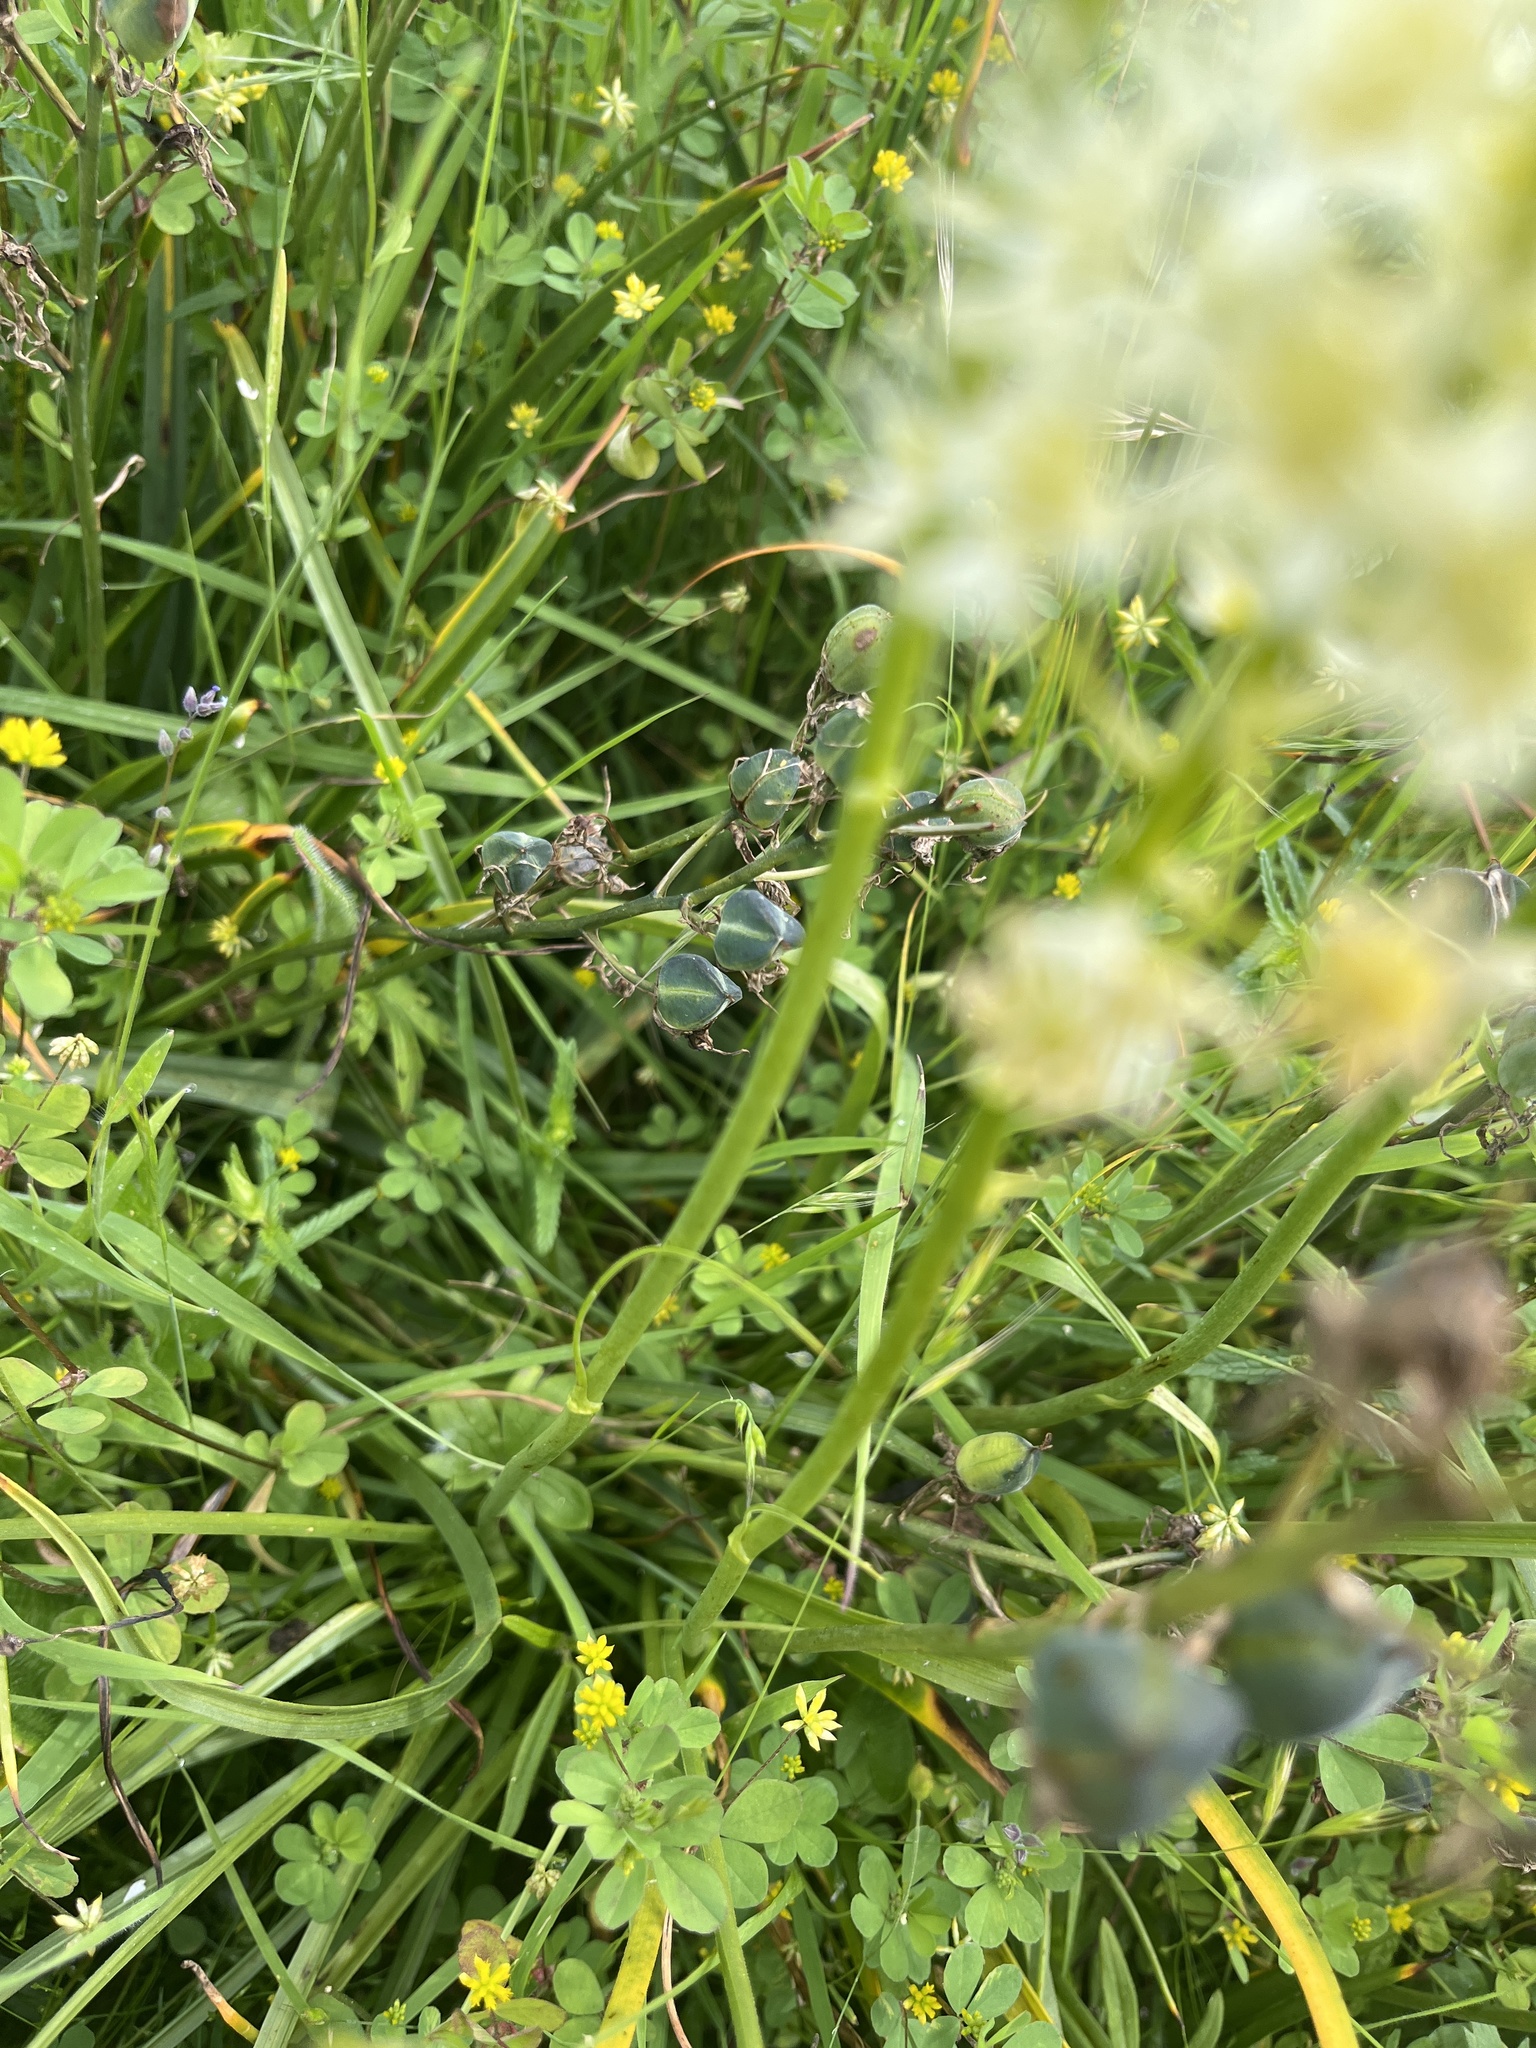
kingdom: Plantae
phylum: Tracheophyta
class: Liliopsida
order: Liliales
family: Melanthiaceae
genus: Toxicoscordion
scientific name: Toxicoscordion venenosum
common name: Meadow death camas
